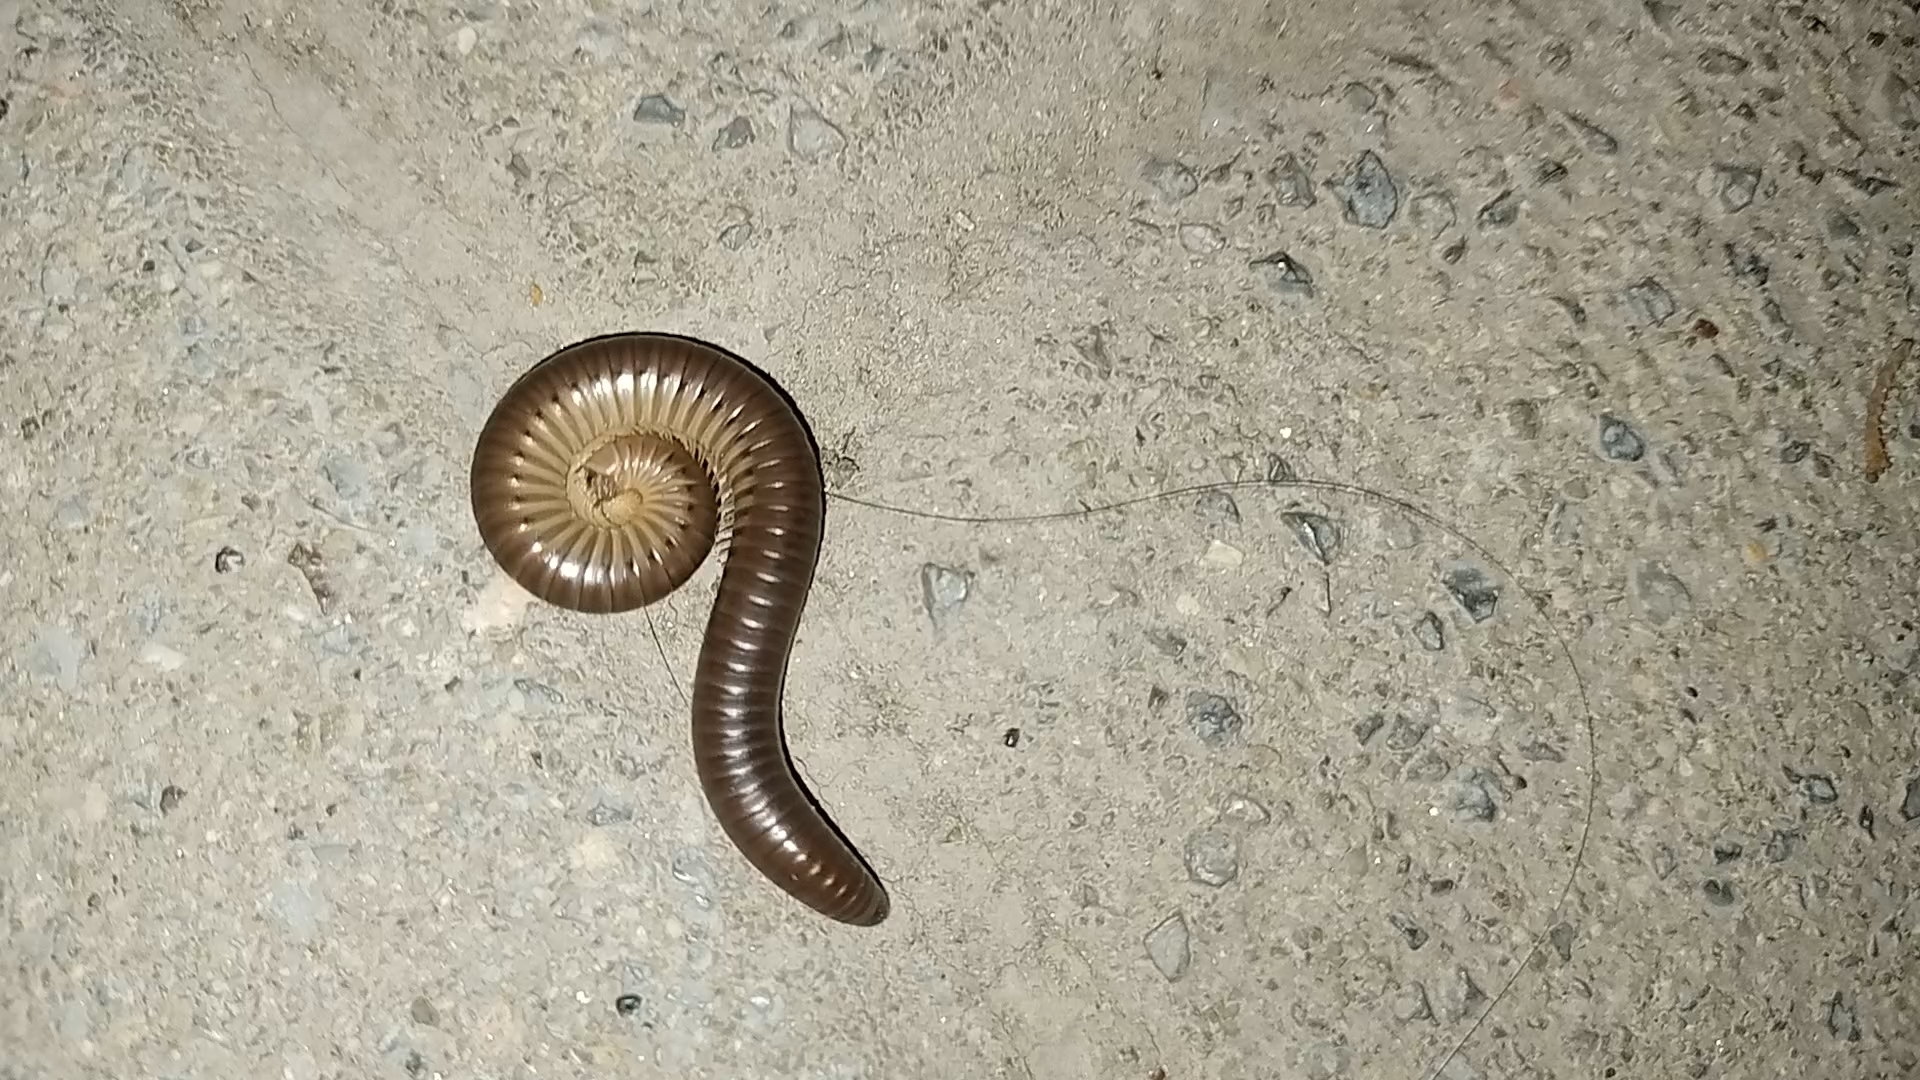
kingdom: Animalia
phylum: Arthropoda
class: Diplopoda
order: Julida
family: Julidae
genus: Pachyiulus
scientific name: Pachyiulus flavipes
